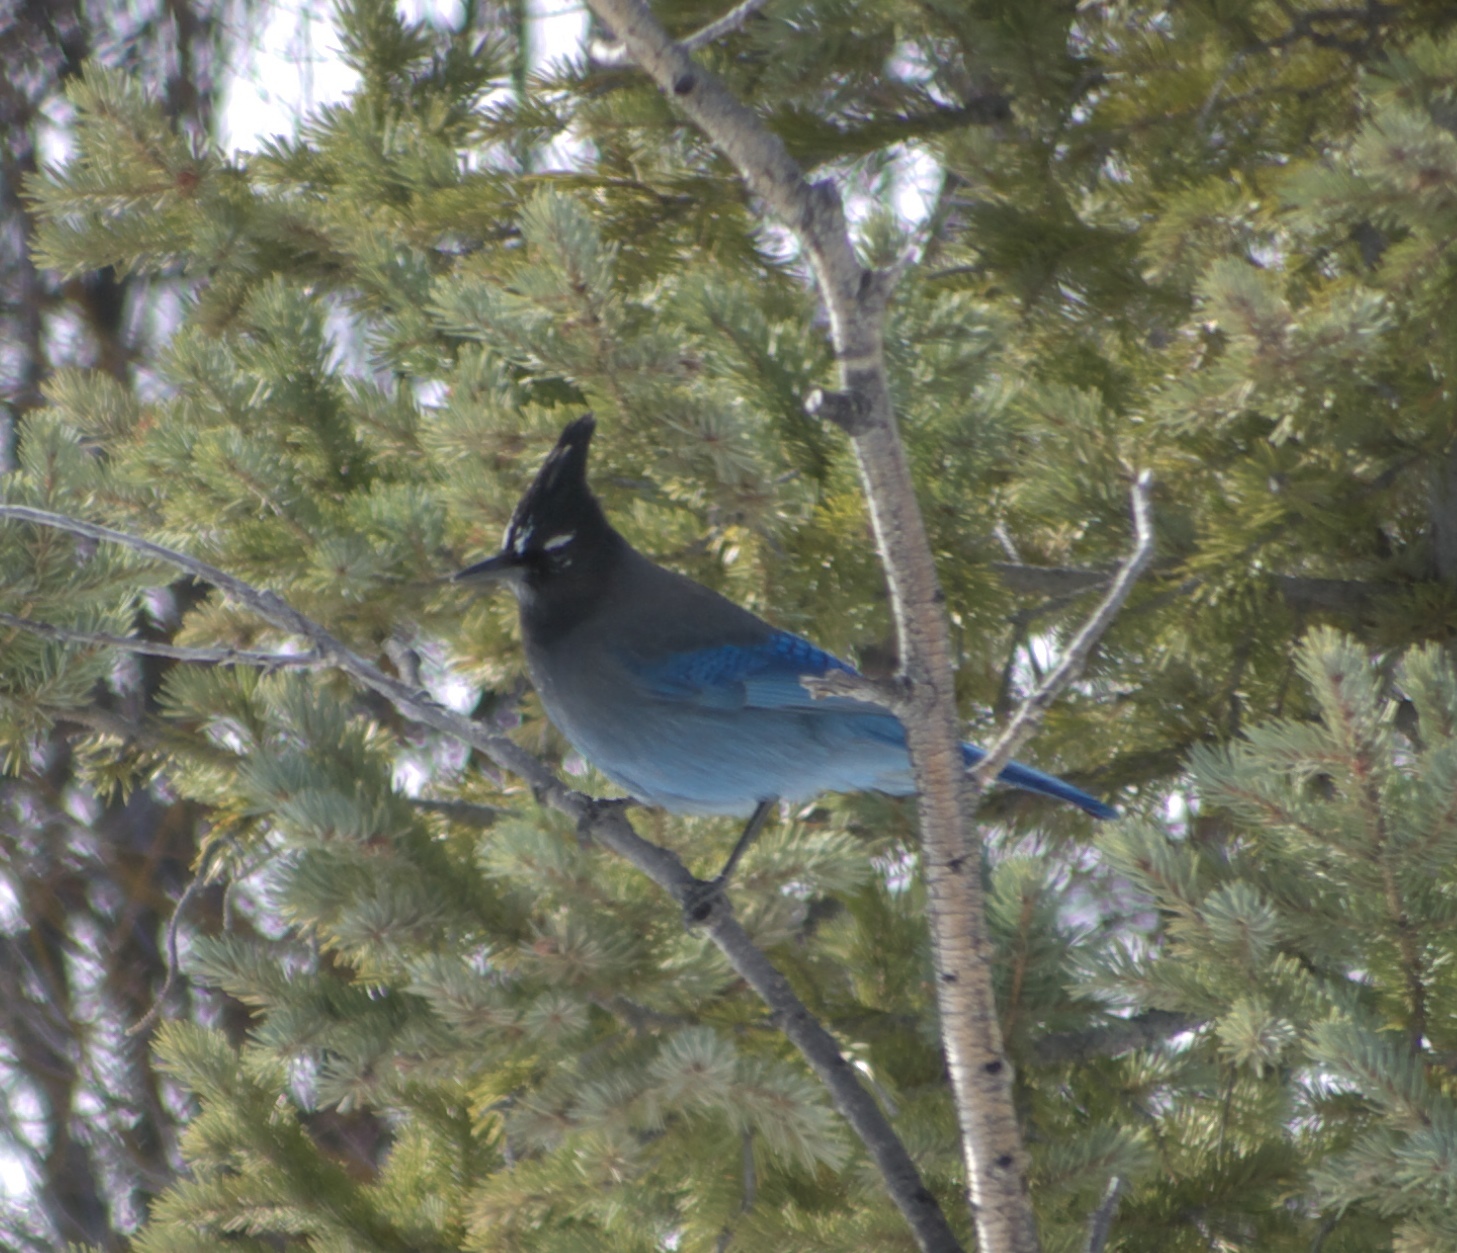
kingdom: Animalia
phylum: Chordata
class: Aves
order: Passeriformes
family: Corvidae
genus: Cyanocitta
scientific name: Cyanocitta stelleri
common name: Steller's jay
